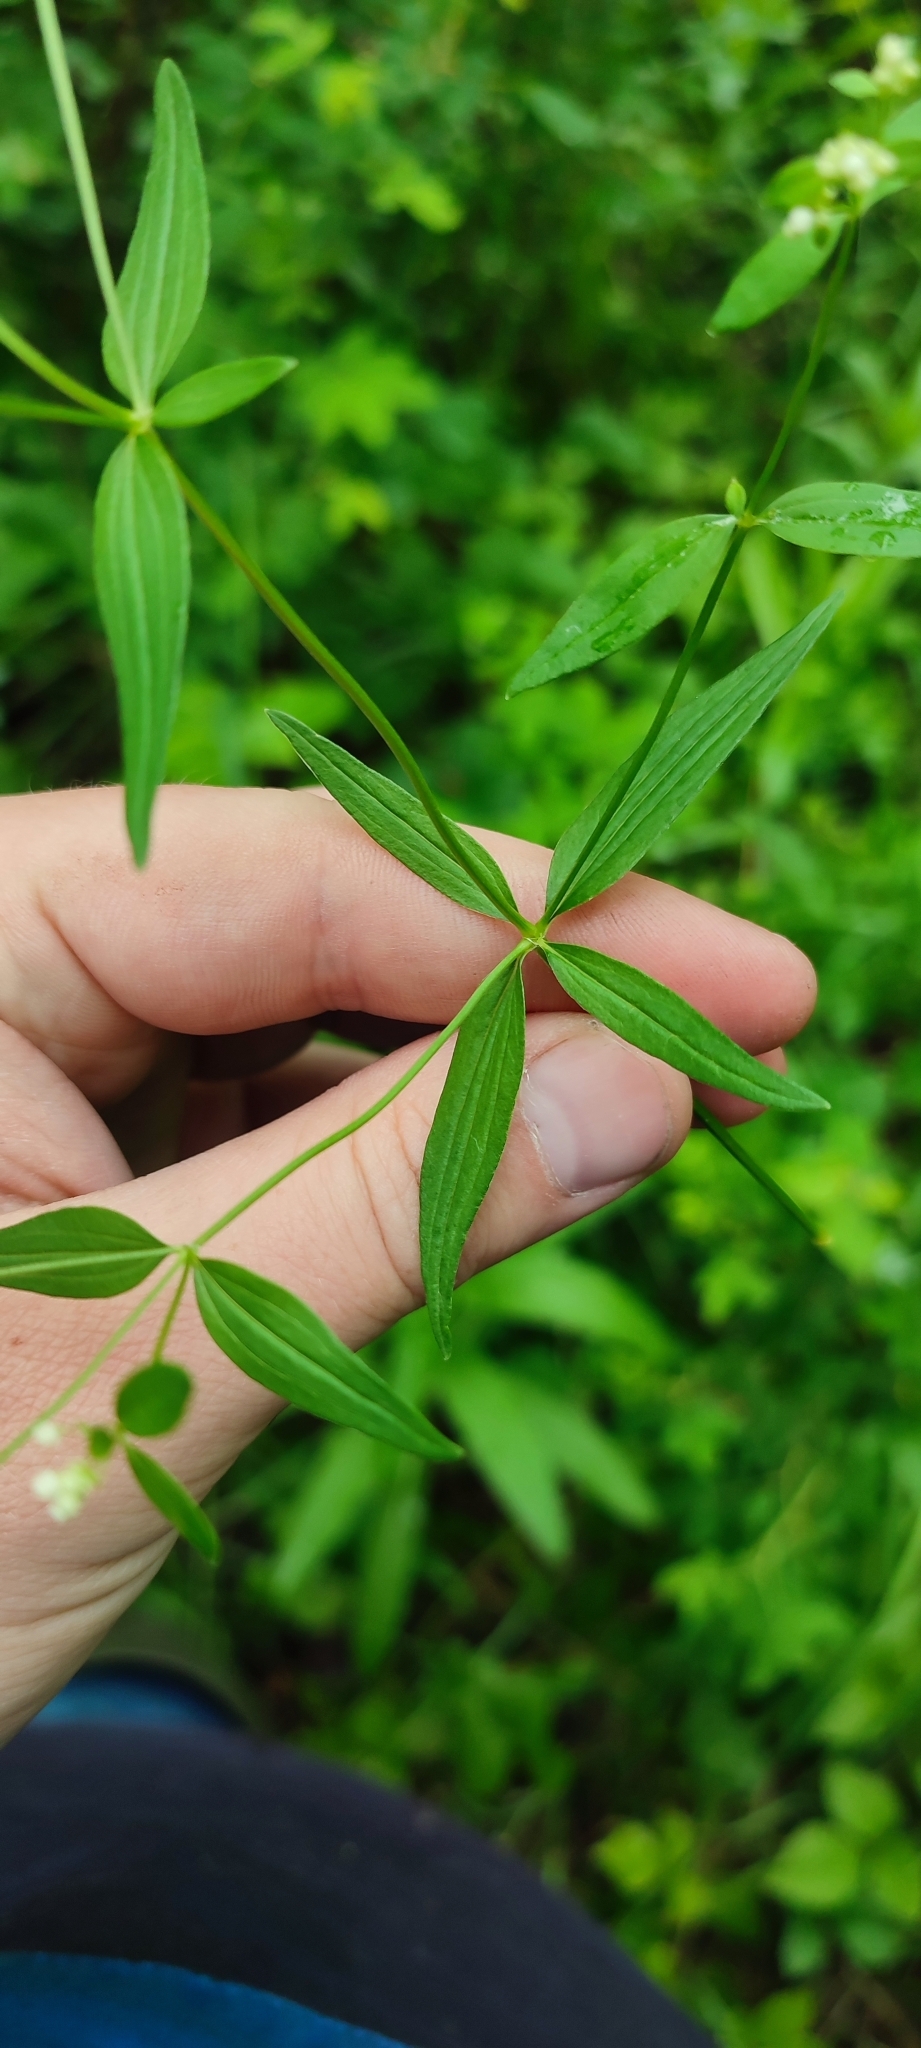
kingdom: Plantae
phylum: Tracheophyta
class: Magnoliopsida
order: Gentianales
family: Rubiaceae
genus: Galium
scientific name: Galium boreale
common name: Northern bedstraw
